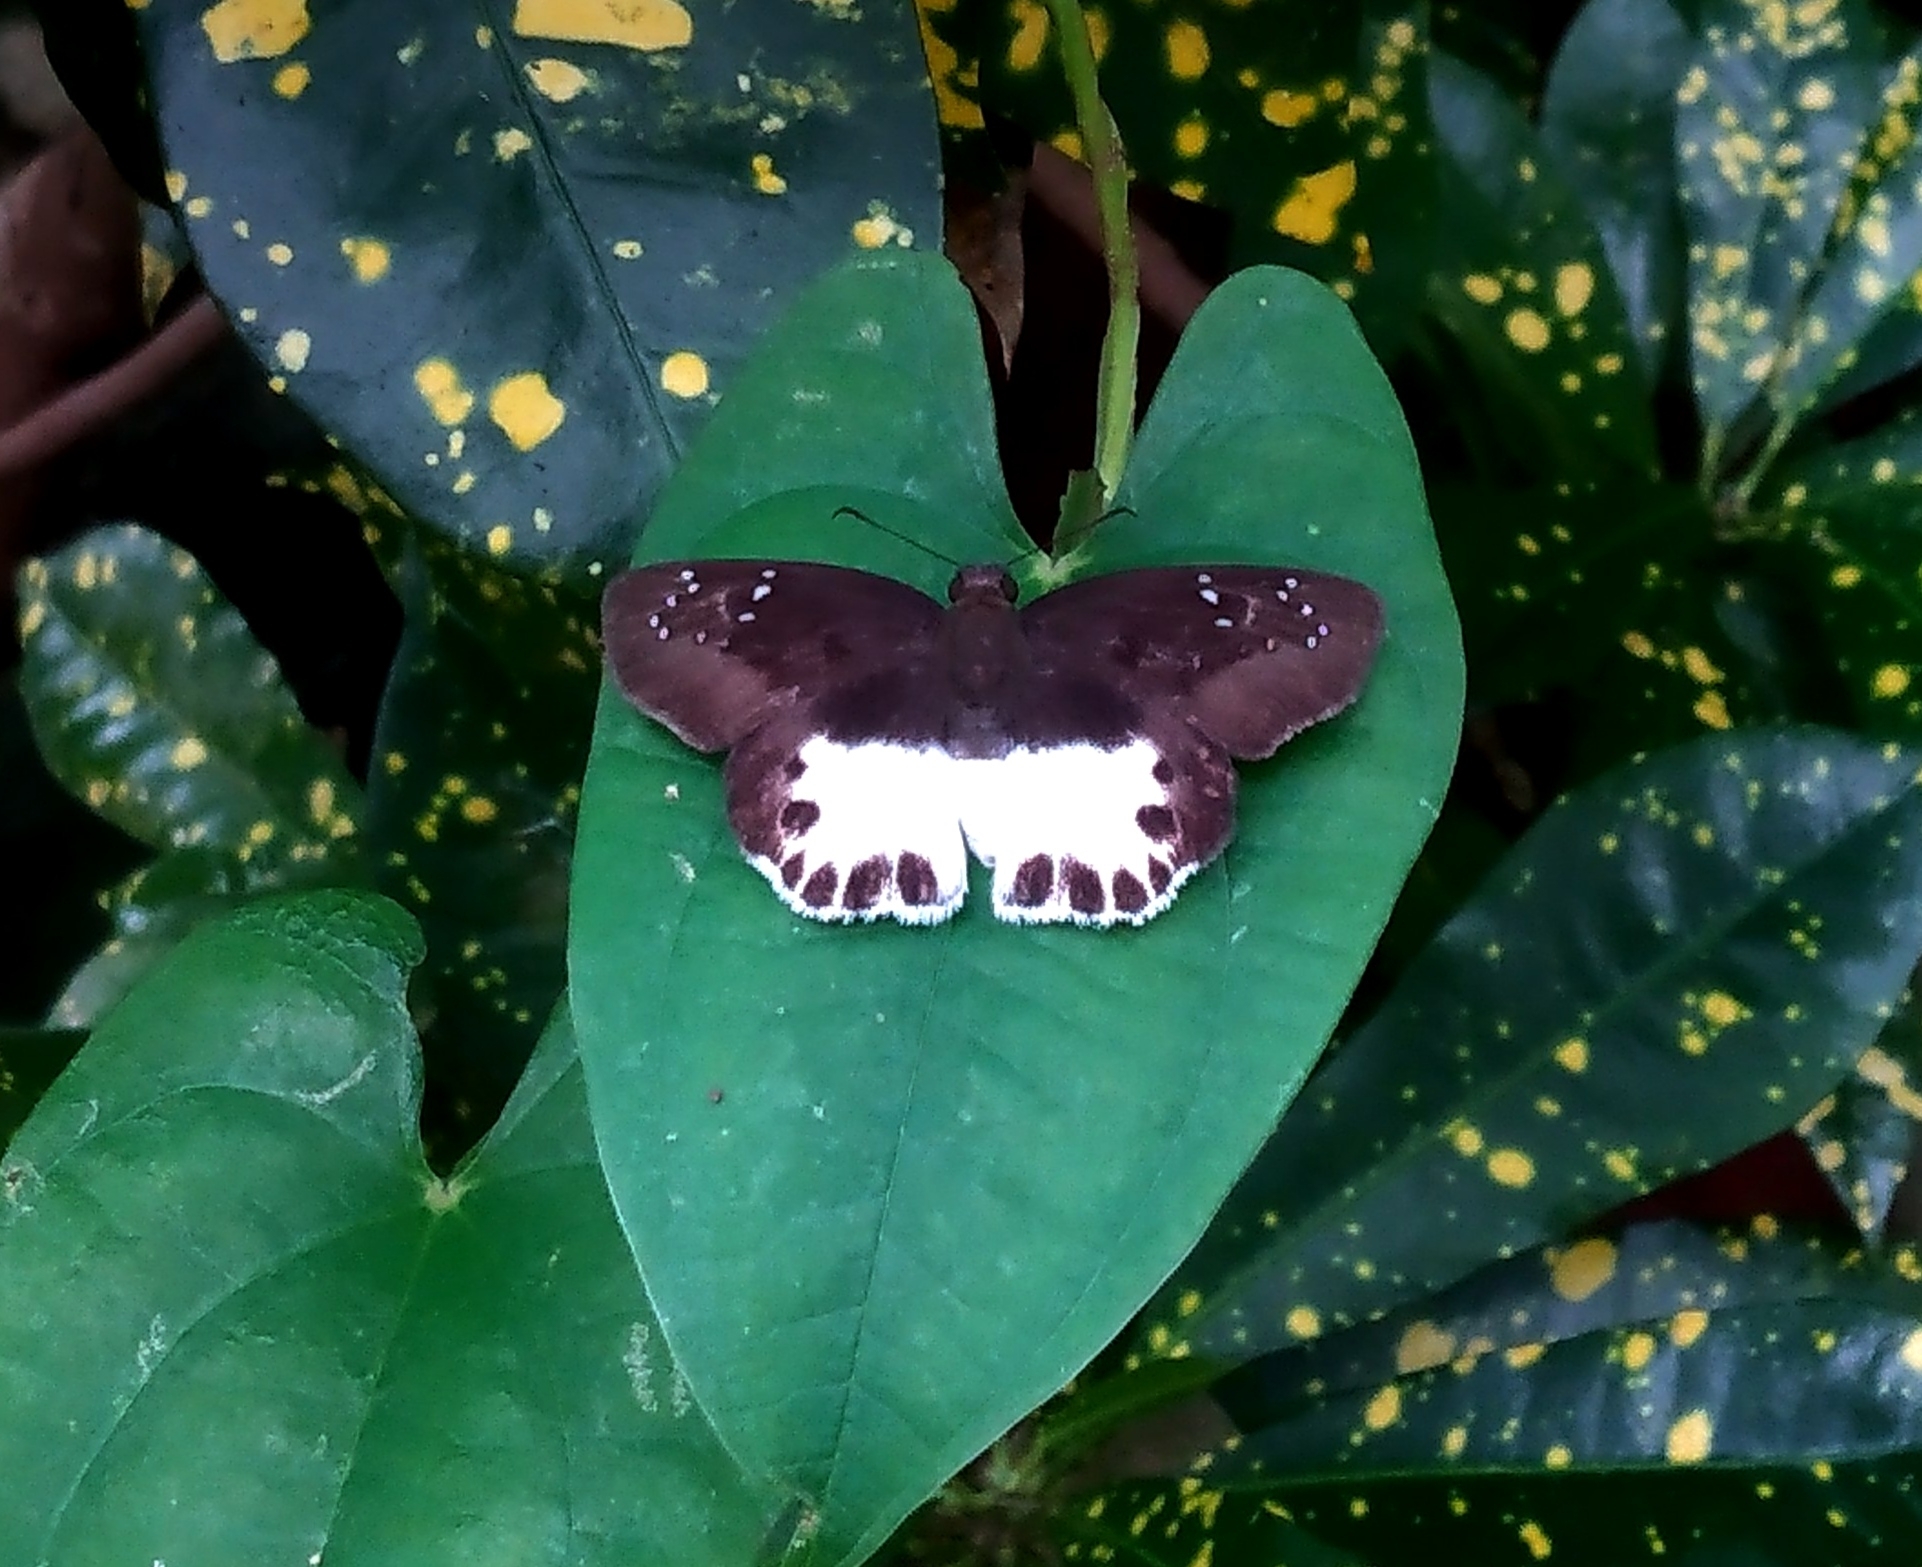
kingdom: Animalia
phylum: Arthropoda
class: Insecta
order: Lepidoptera
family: Hesperiidae
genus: Tagiades
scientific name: Tagiades litigiosa
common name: Water snow flat
